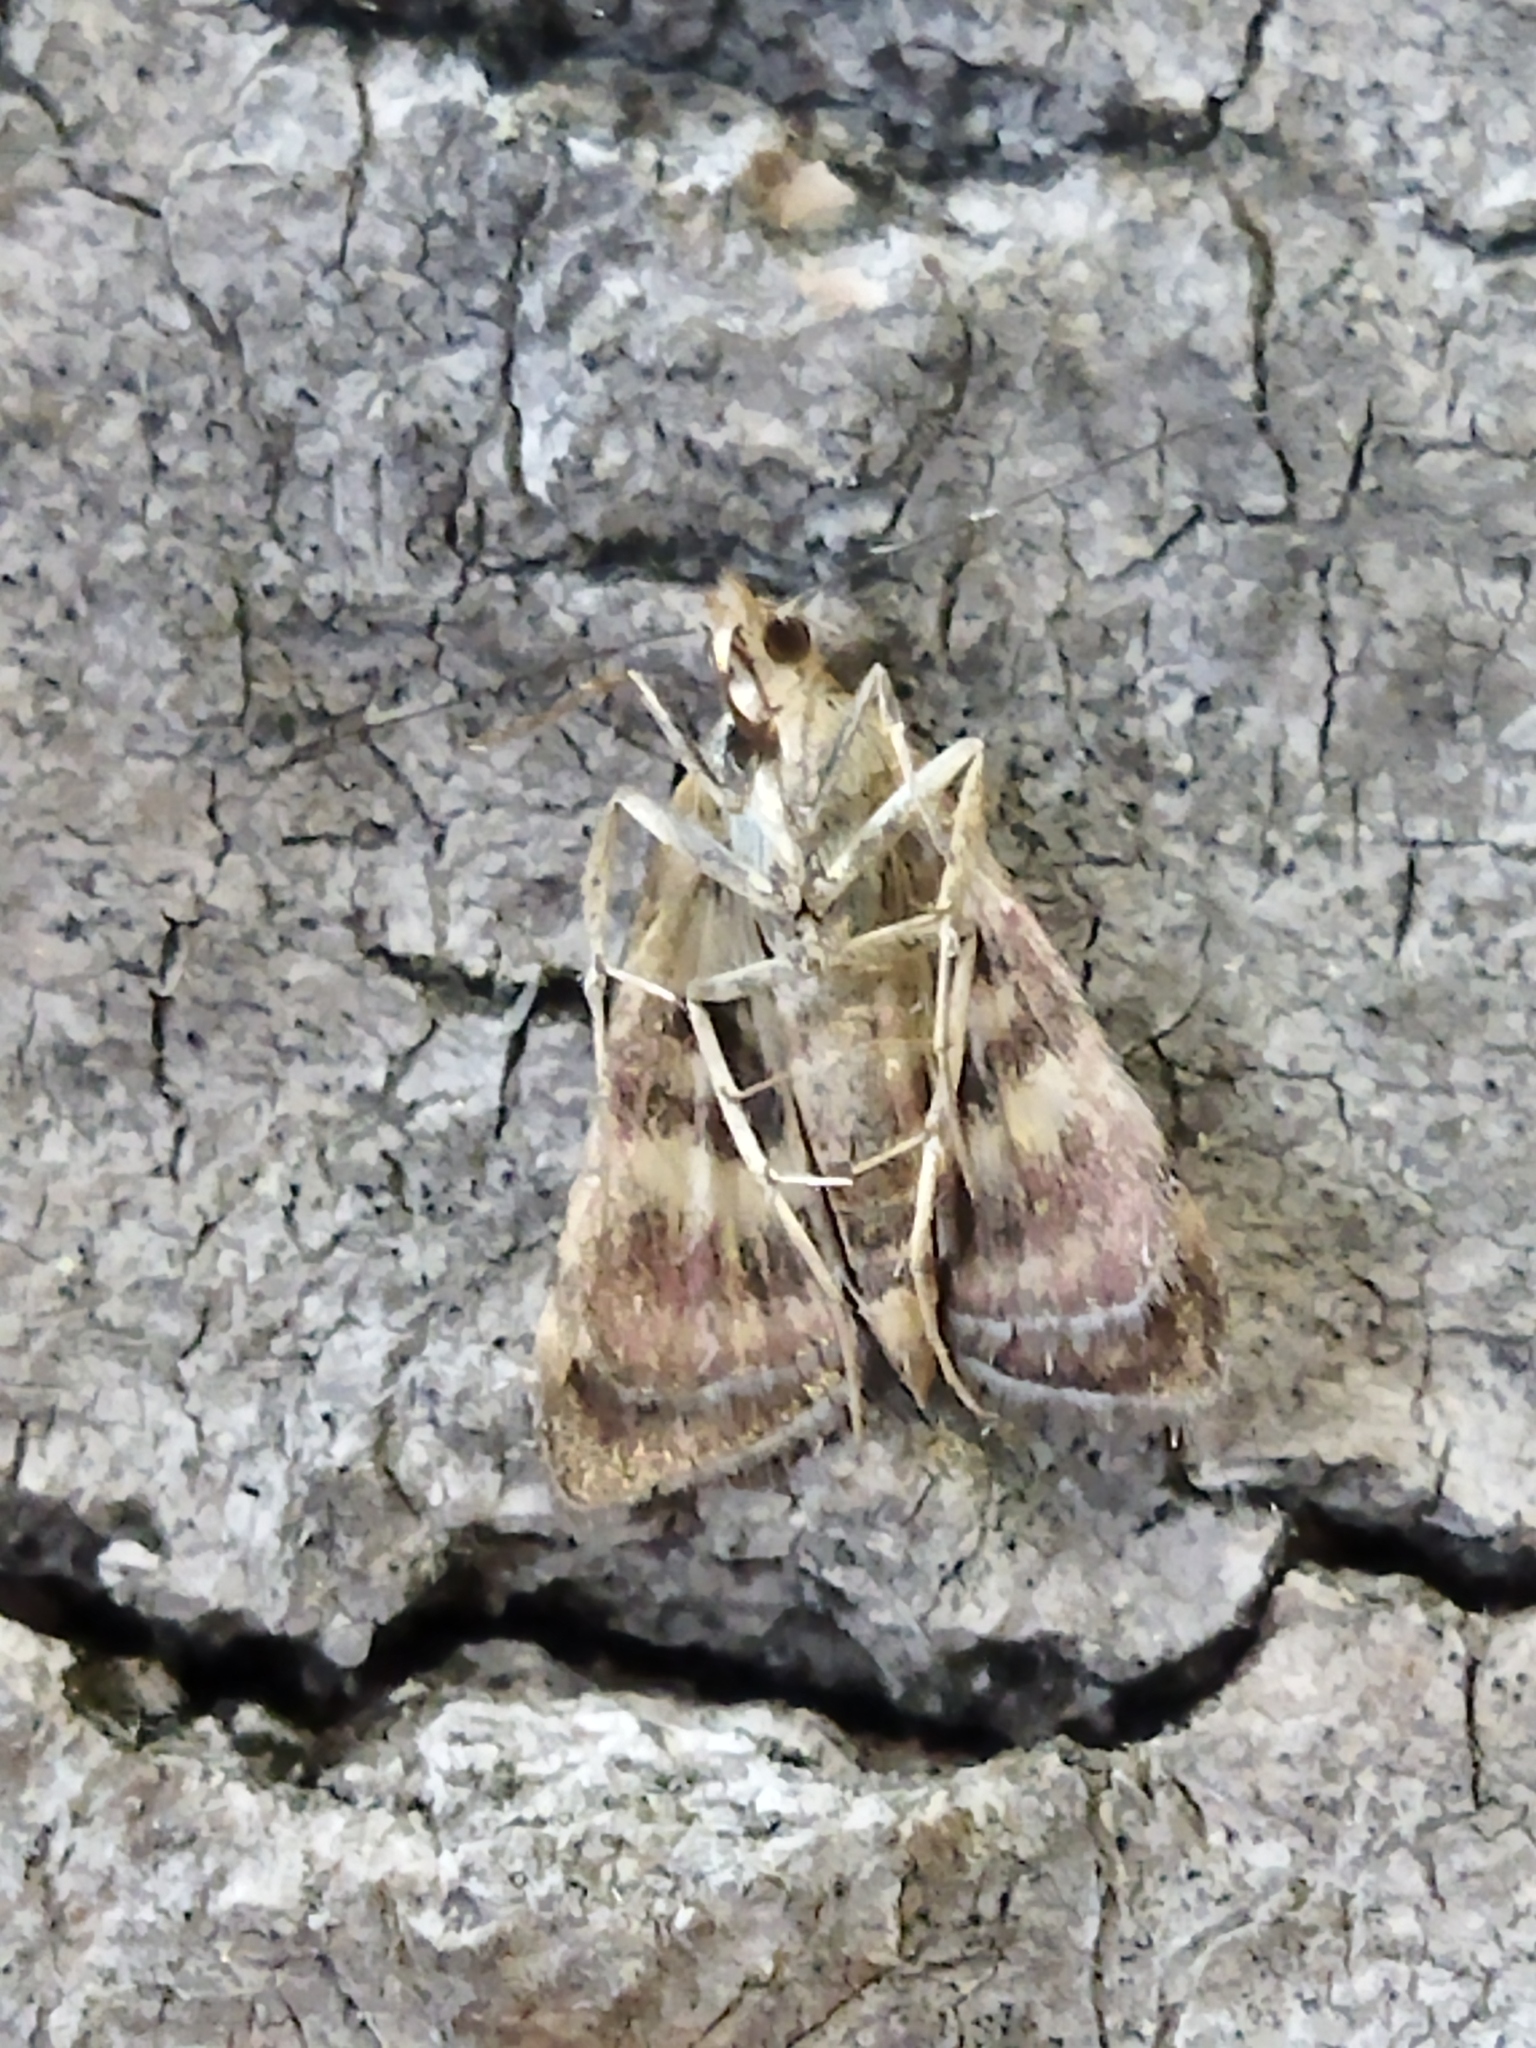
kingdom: Animalia
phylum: Arthropoda
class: Insecta
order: Lepidoptera
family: Crambidae
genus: Pyrausta
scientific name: Pyrausta purpuralis
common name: Common purple & gold
